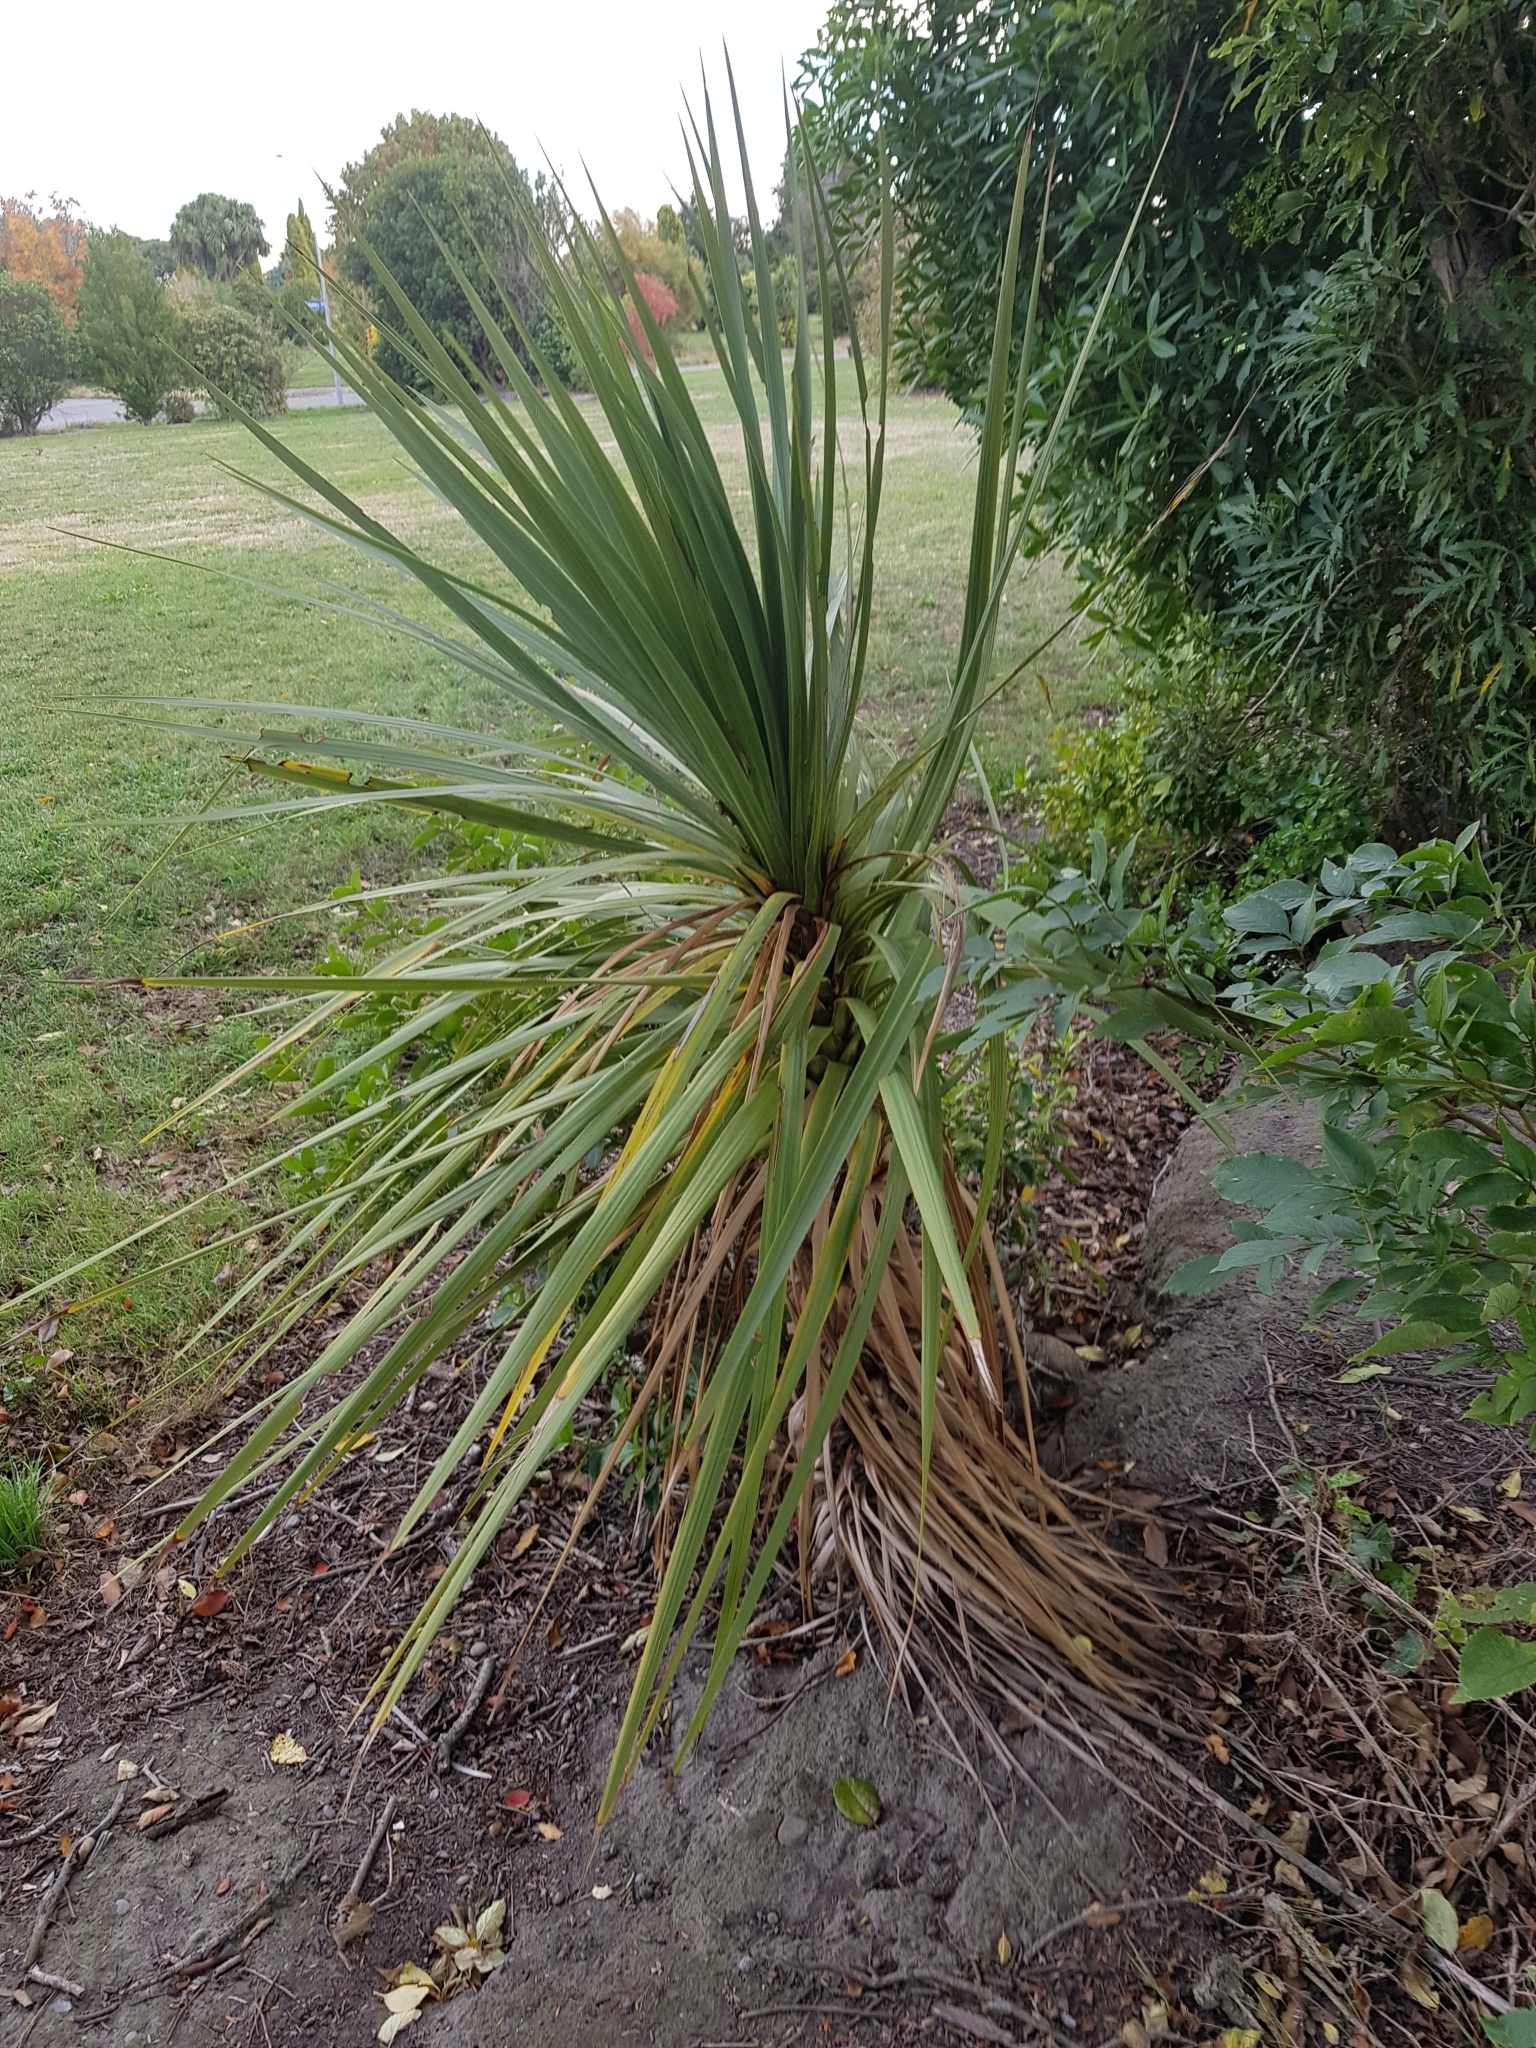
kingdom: Plantae
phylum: Tracheophyta
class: Liliopsida
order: Asparagales
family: Asparagaceae
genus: Cordyline
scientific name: Cordyline australis
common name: Cabbage-palm
